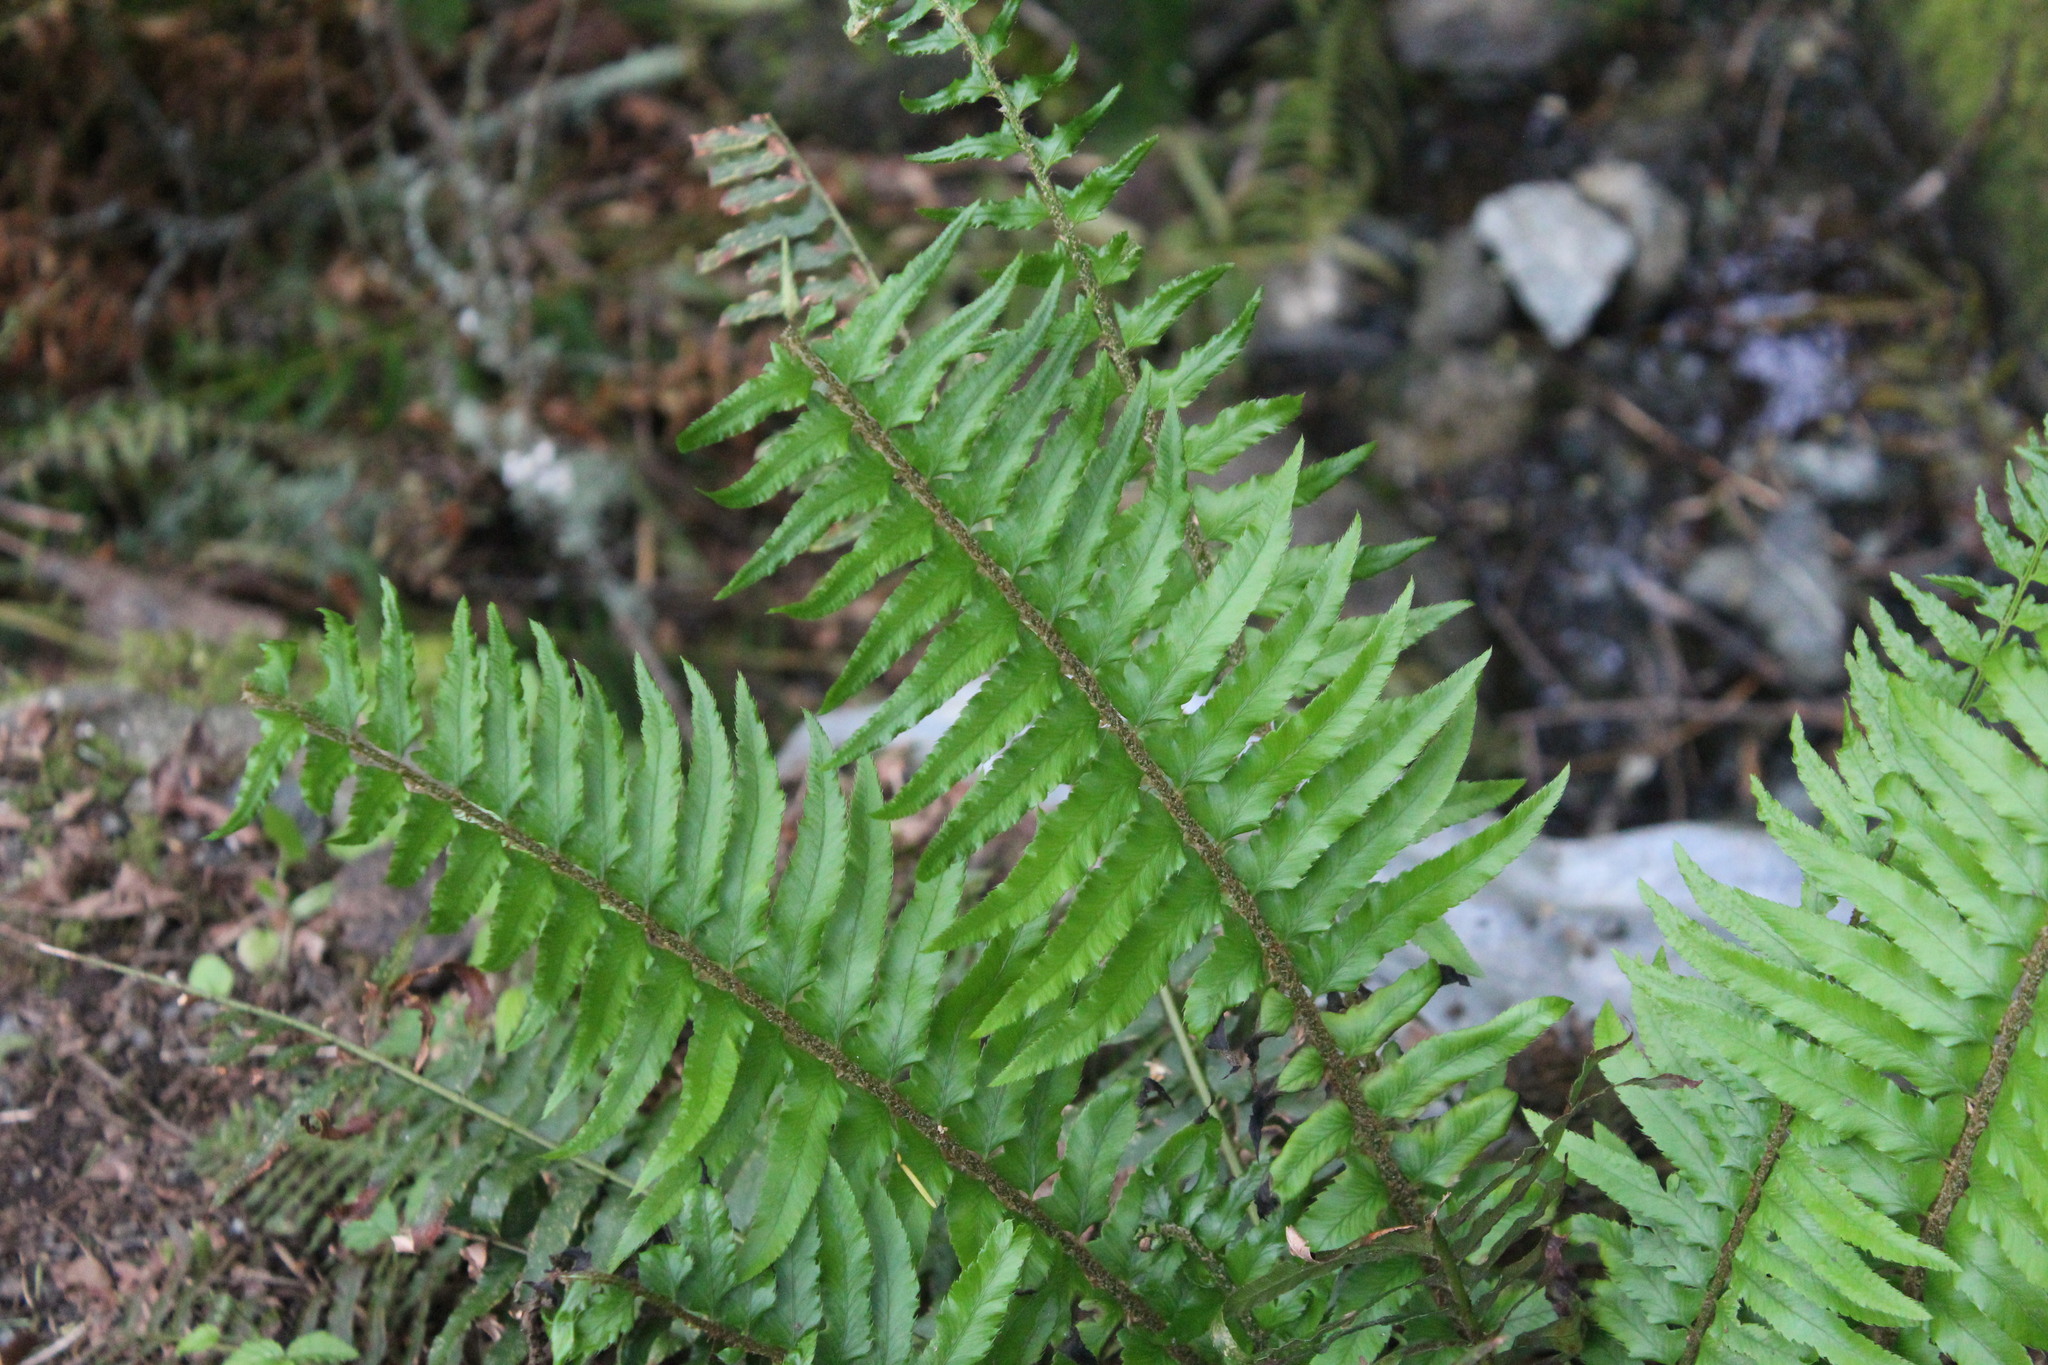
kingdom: Plantae
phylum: Tracheophyta
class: Polypodiopsida
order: Polypodiales
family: Dryopteridaceae
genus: Polystichum
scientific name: Polystichum munitum
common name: Western sword-fern
